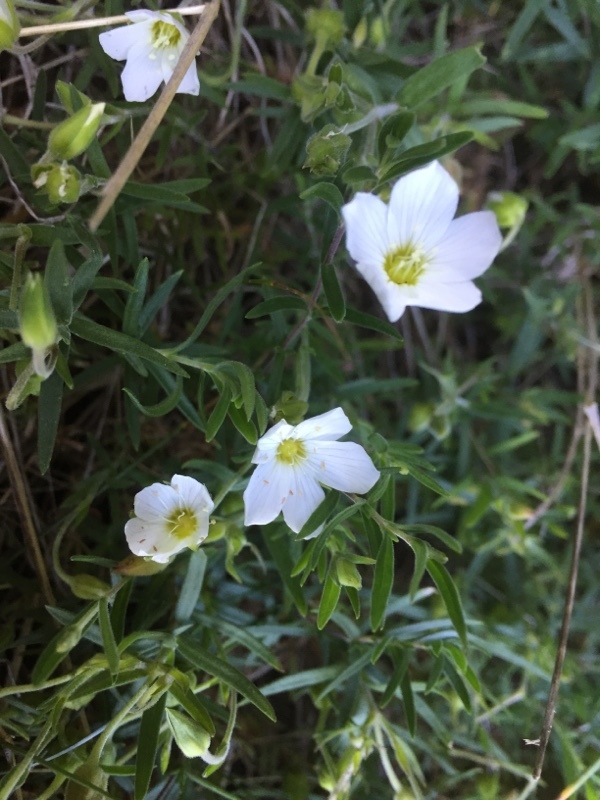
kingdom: Plantae
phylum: Tracheophyta
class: Magnoliopsida
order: Caryophyllales
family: Caryophyllaceae
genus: Arenaria
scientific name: Arenaria montana
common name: Mountain sandwort
